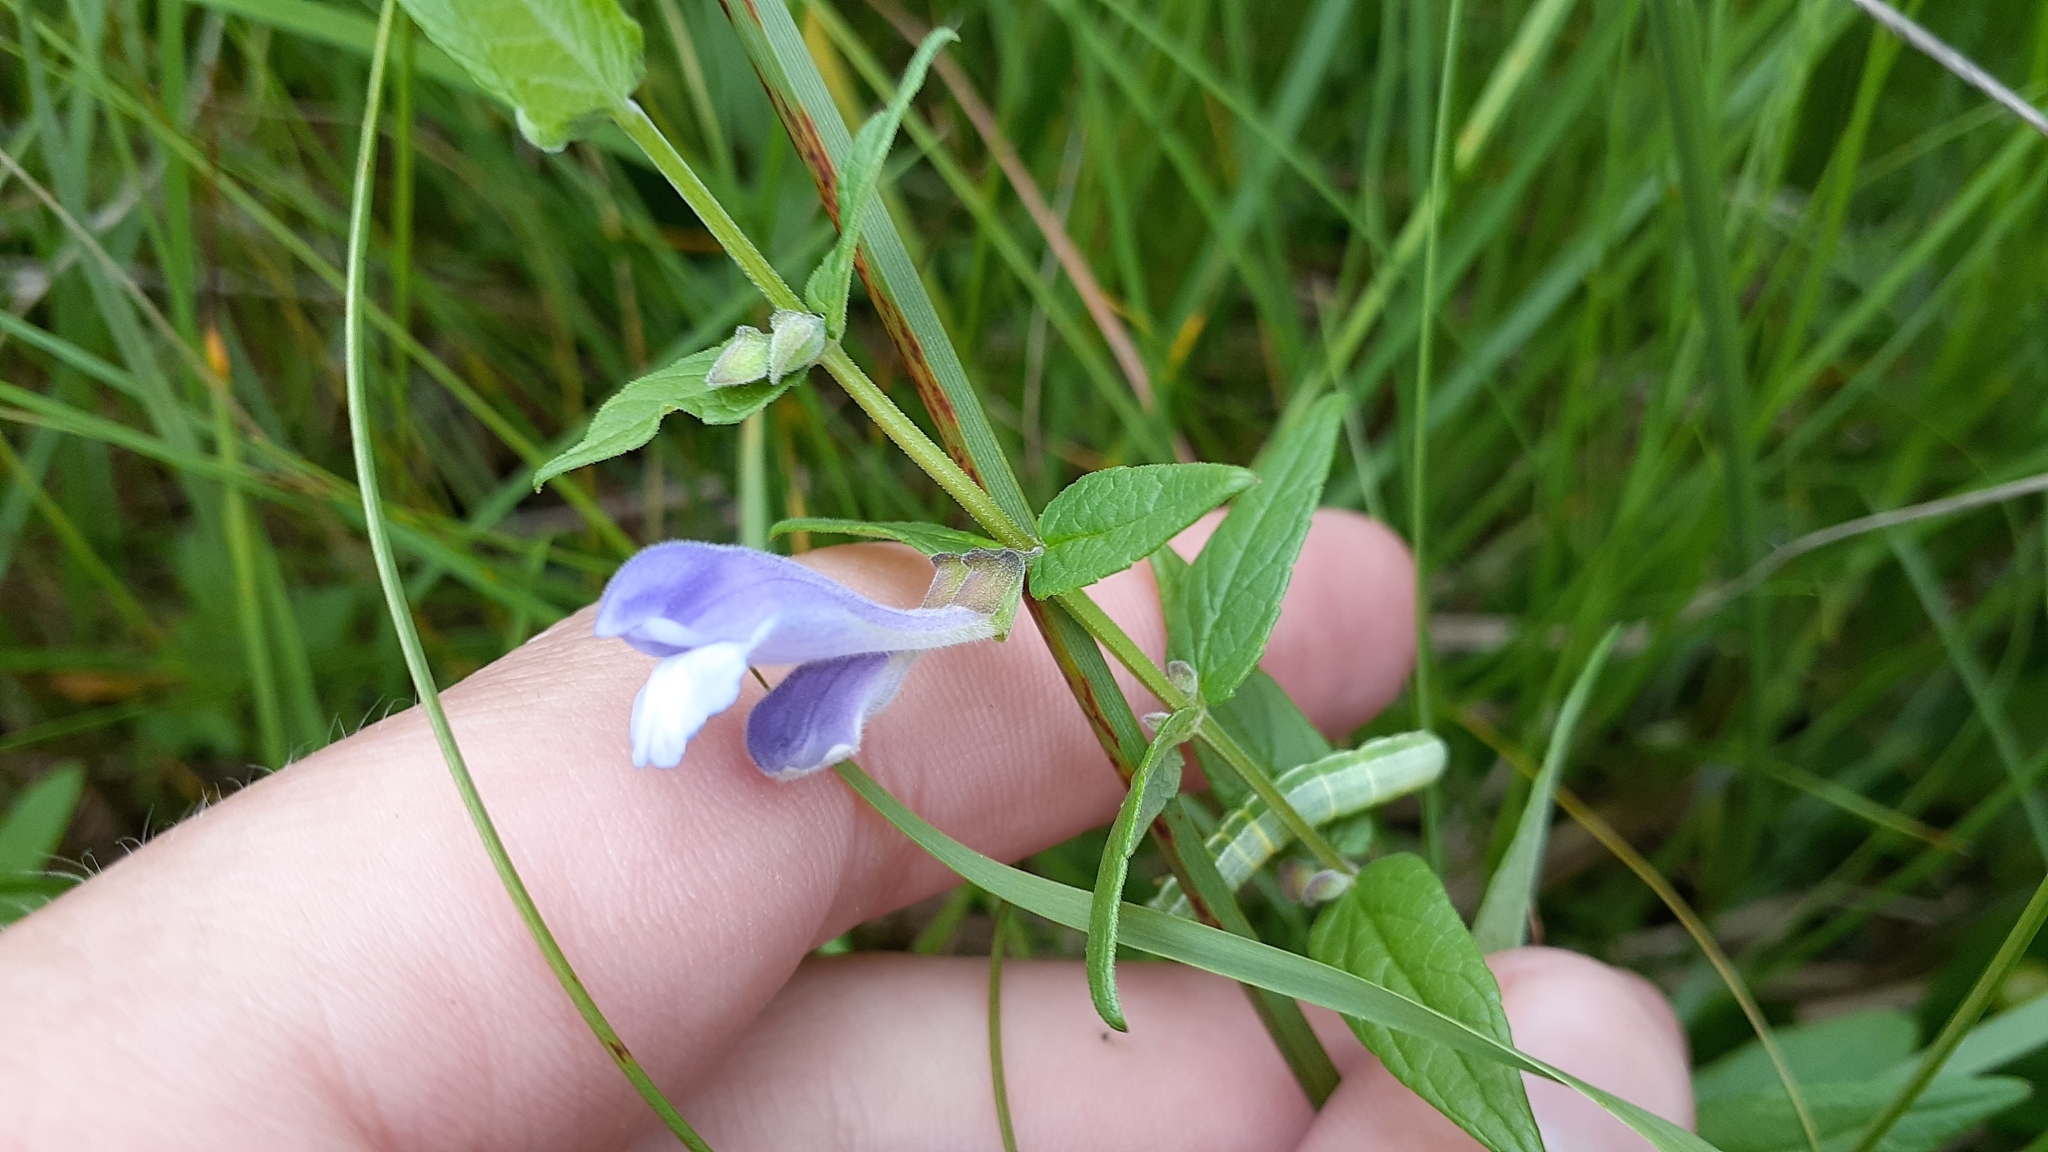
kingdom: Plantae
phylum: Tracheophyta
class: Magnoliopsida
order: Lamiales
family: Lamiaceae
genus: Scutellaria
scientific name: Scutellaria galericulata
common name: Skullcap
